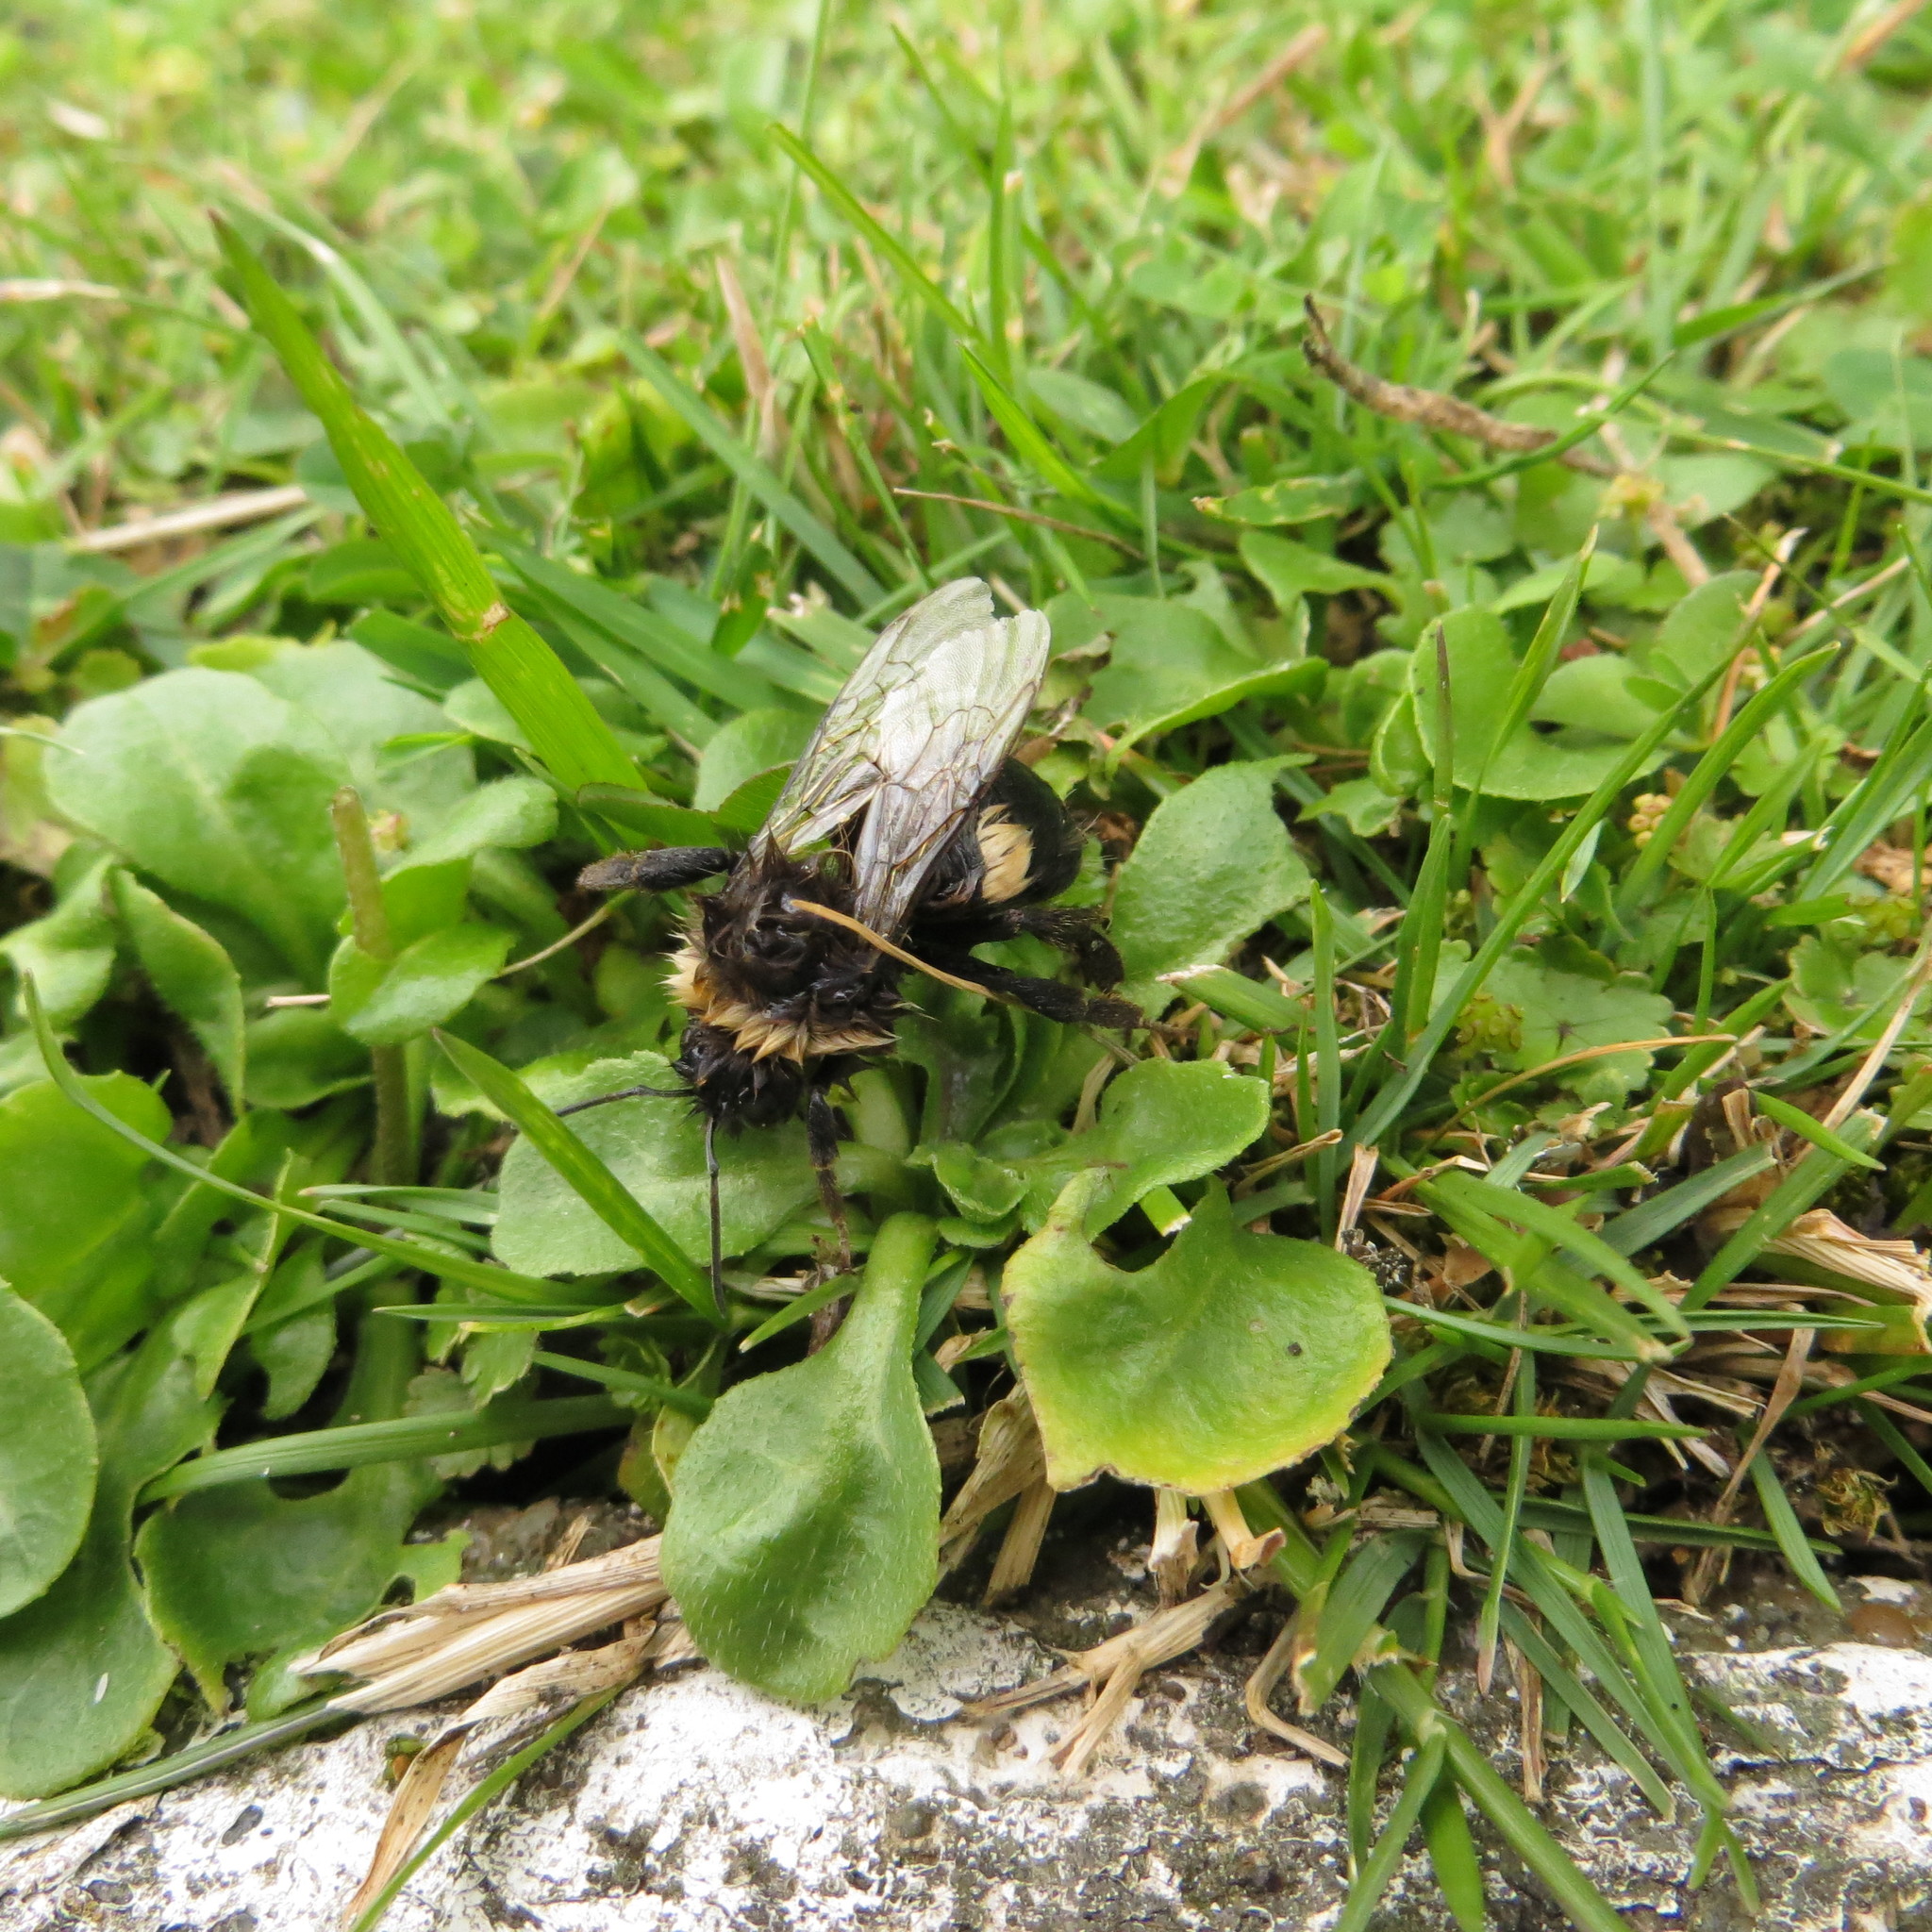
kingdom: Animalia
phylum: Arthropoda
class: Insecta
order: Hymenoptera
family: Apidae
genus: Bombus
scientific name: Bombus terrestris
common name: Buff-tailed bumblebee
